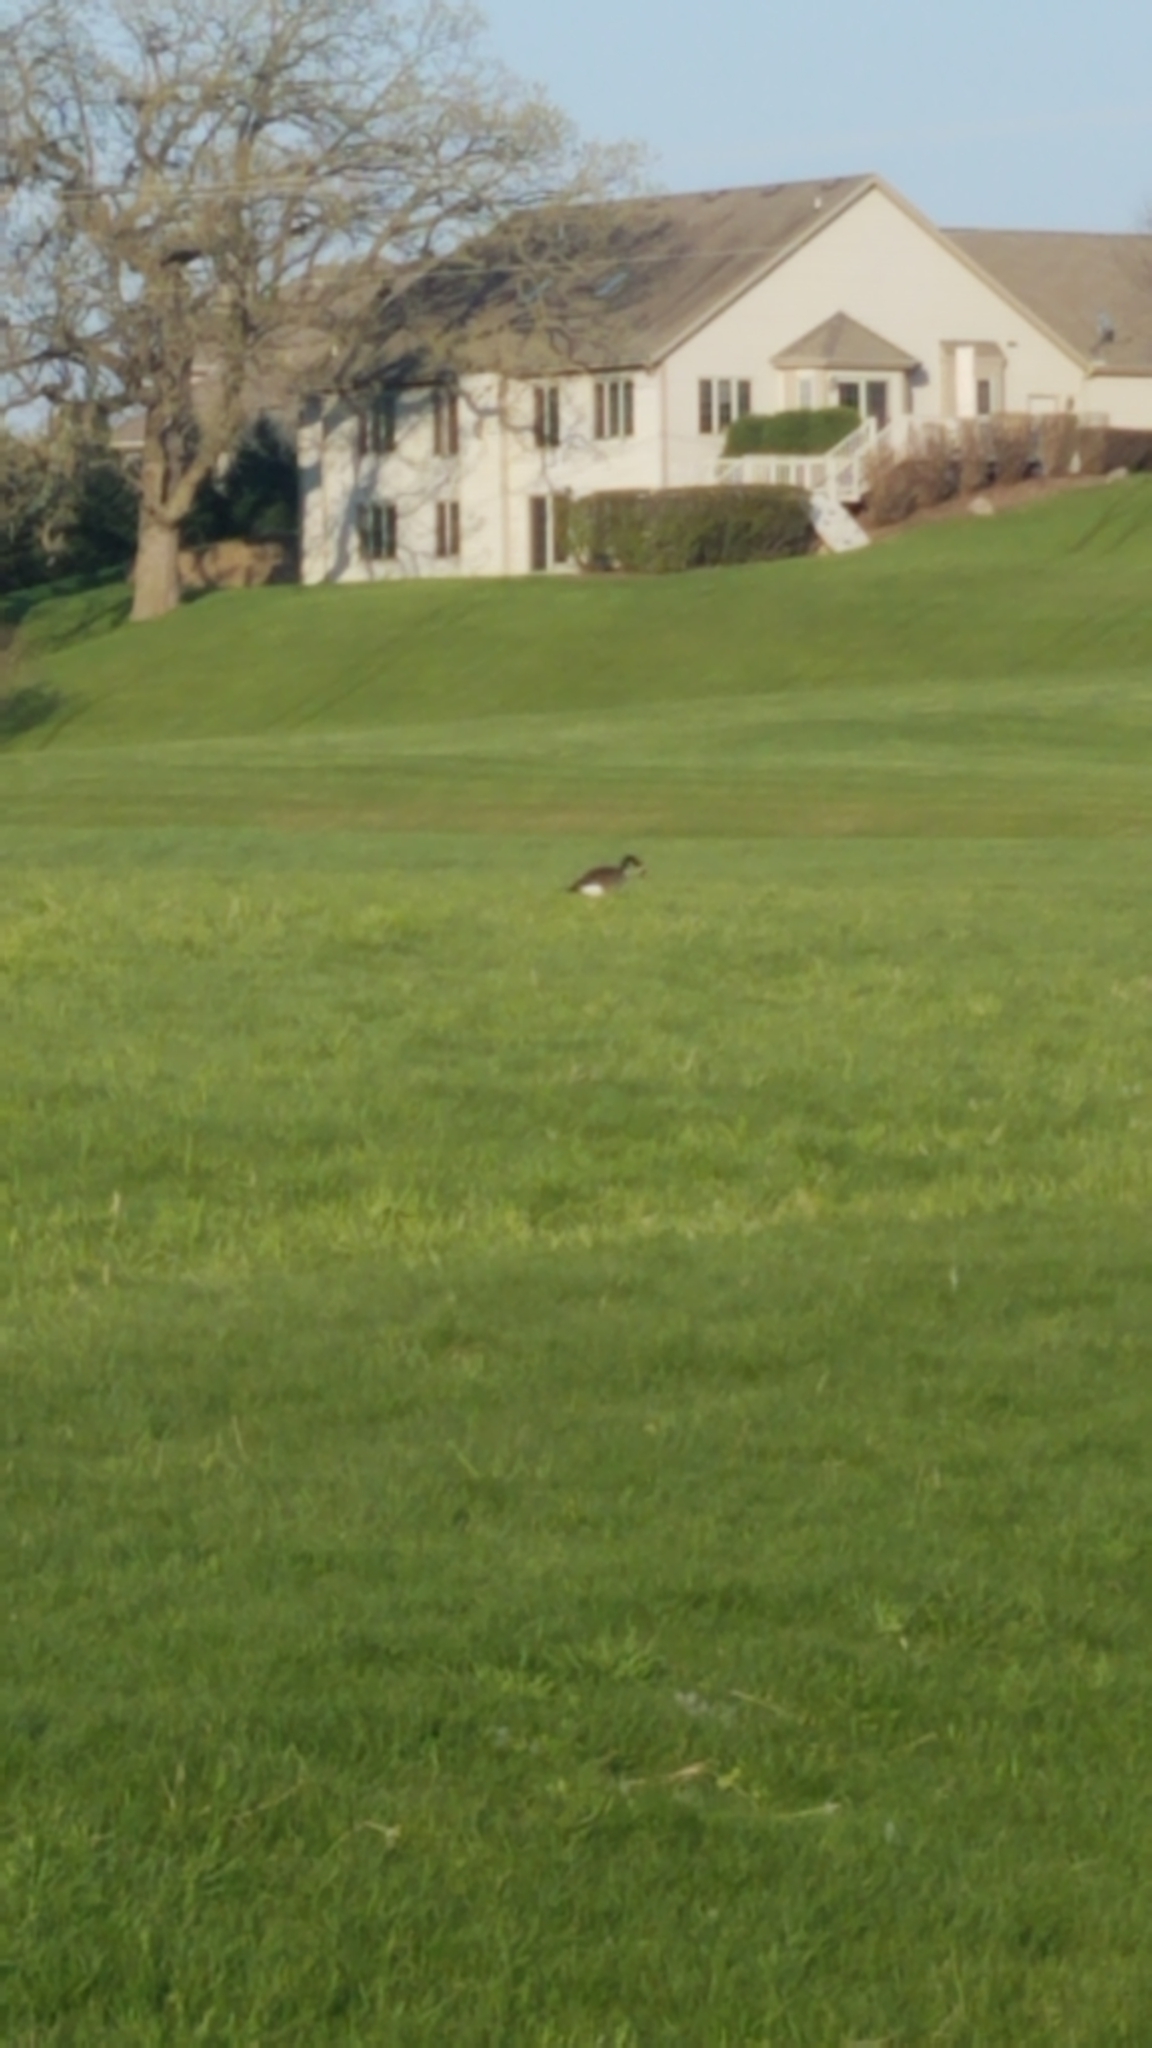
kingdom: Animalia
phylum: Chordata
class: Aves
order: Anseriformes
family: Anatidae
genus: Branta
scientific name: Branta canadensis
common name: Canada goose
